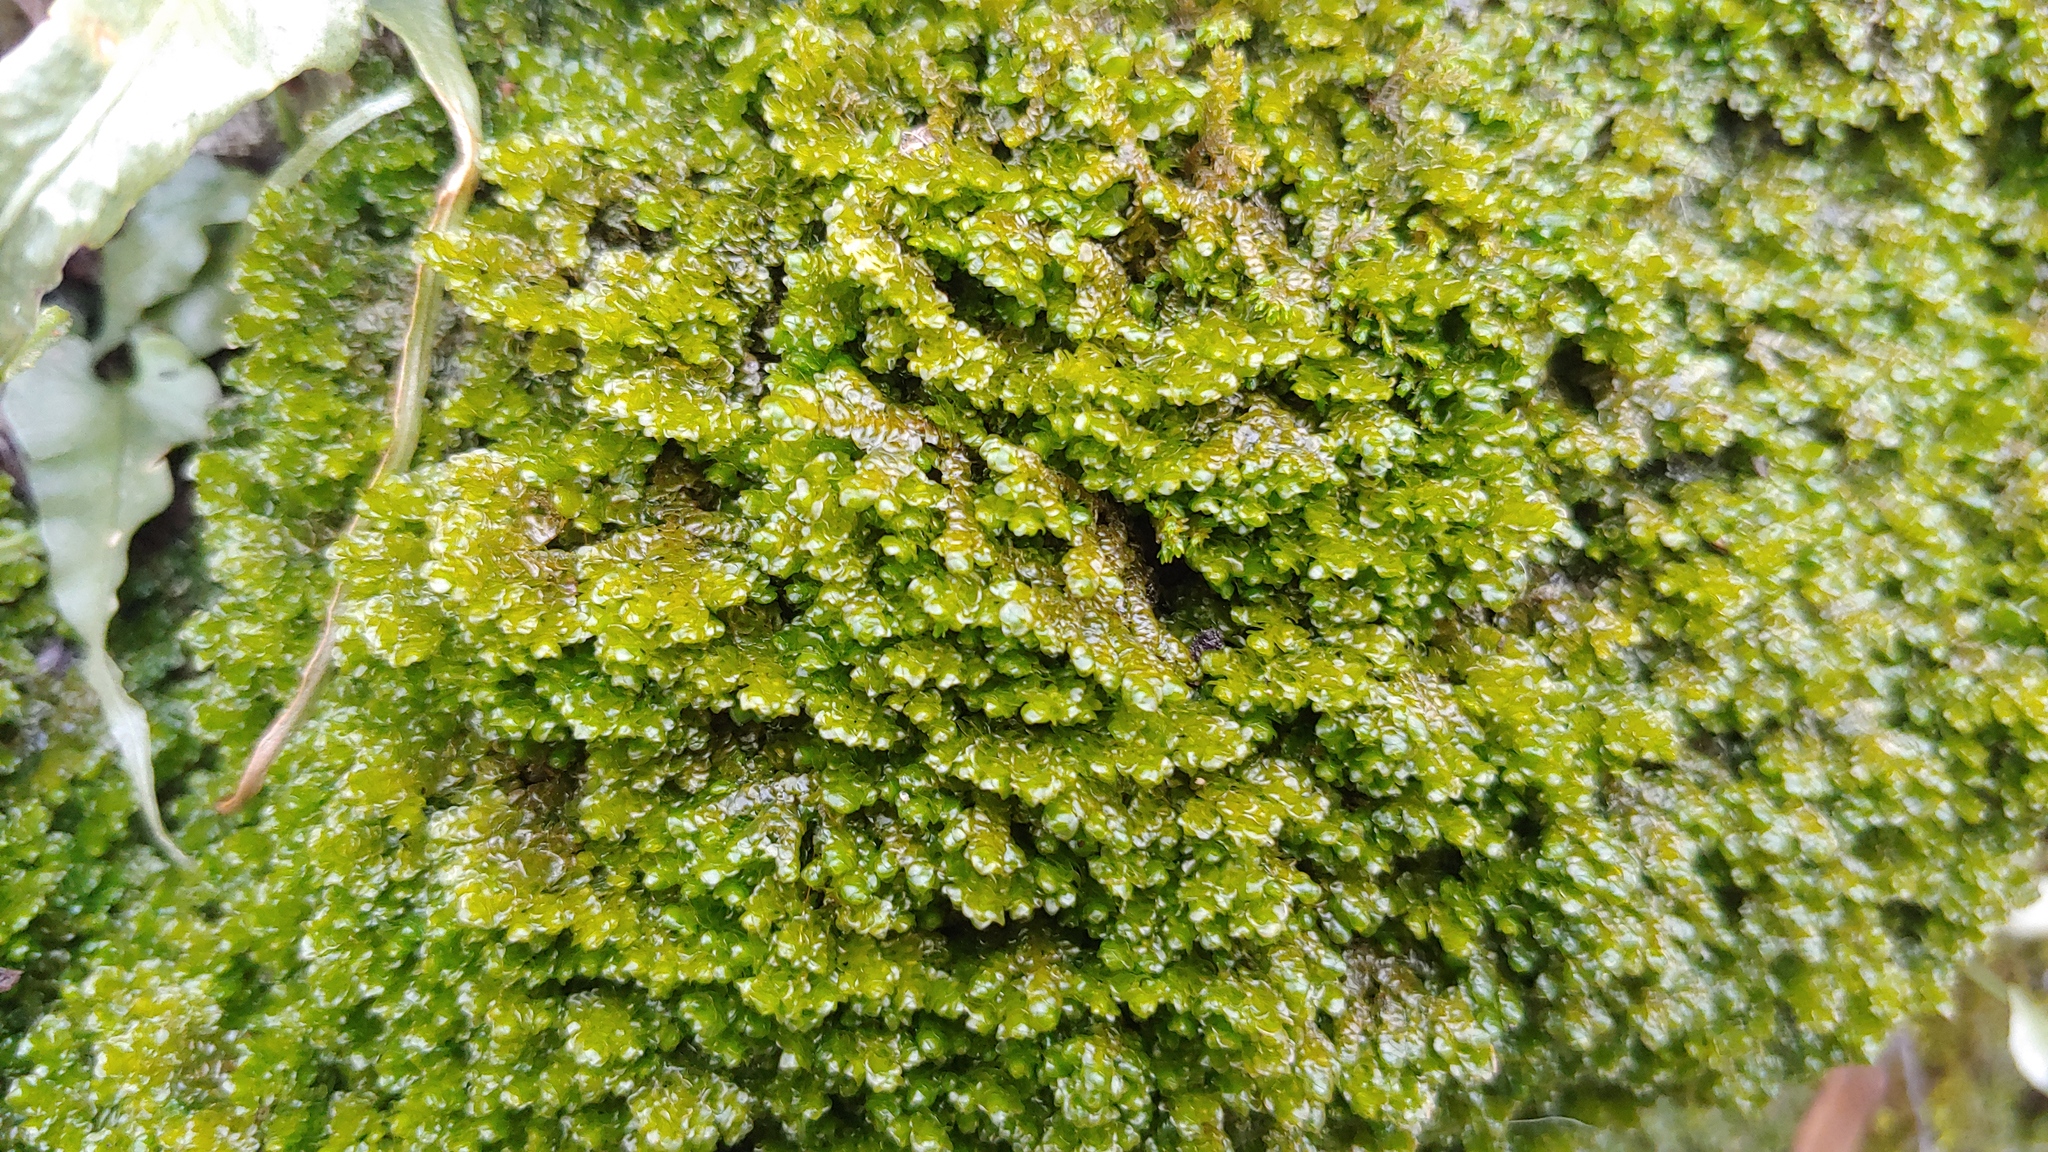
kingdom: Plantae
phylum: Marchantiophyta
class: Jungermanniopsida
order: Porellales
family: Porellaceae
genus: Porella
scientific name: Porella platyphylla
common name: Wall scalewort
